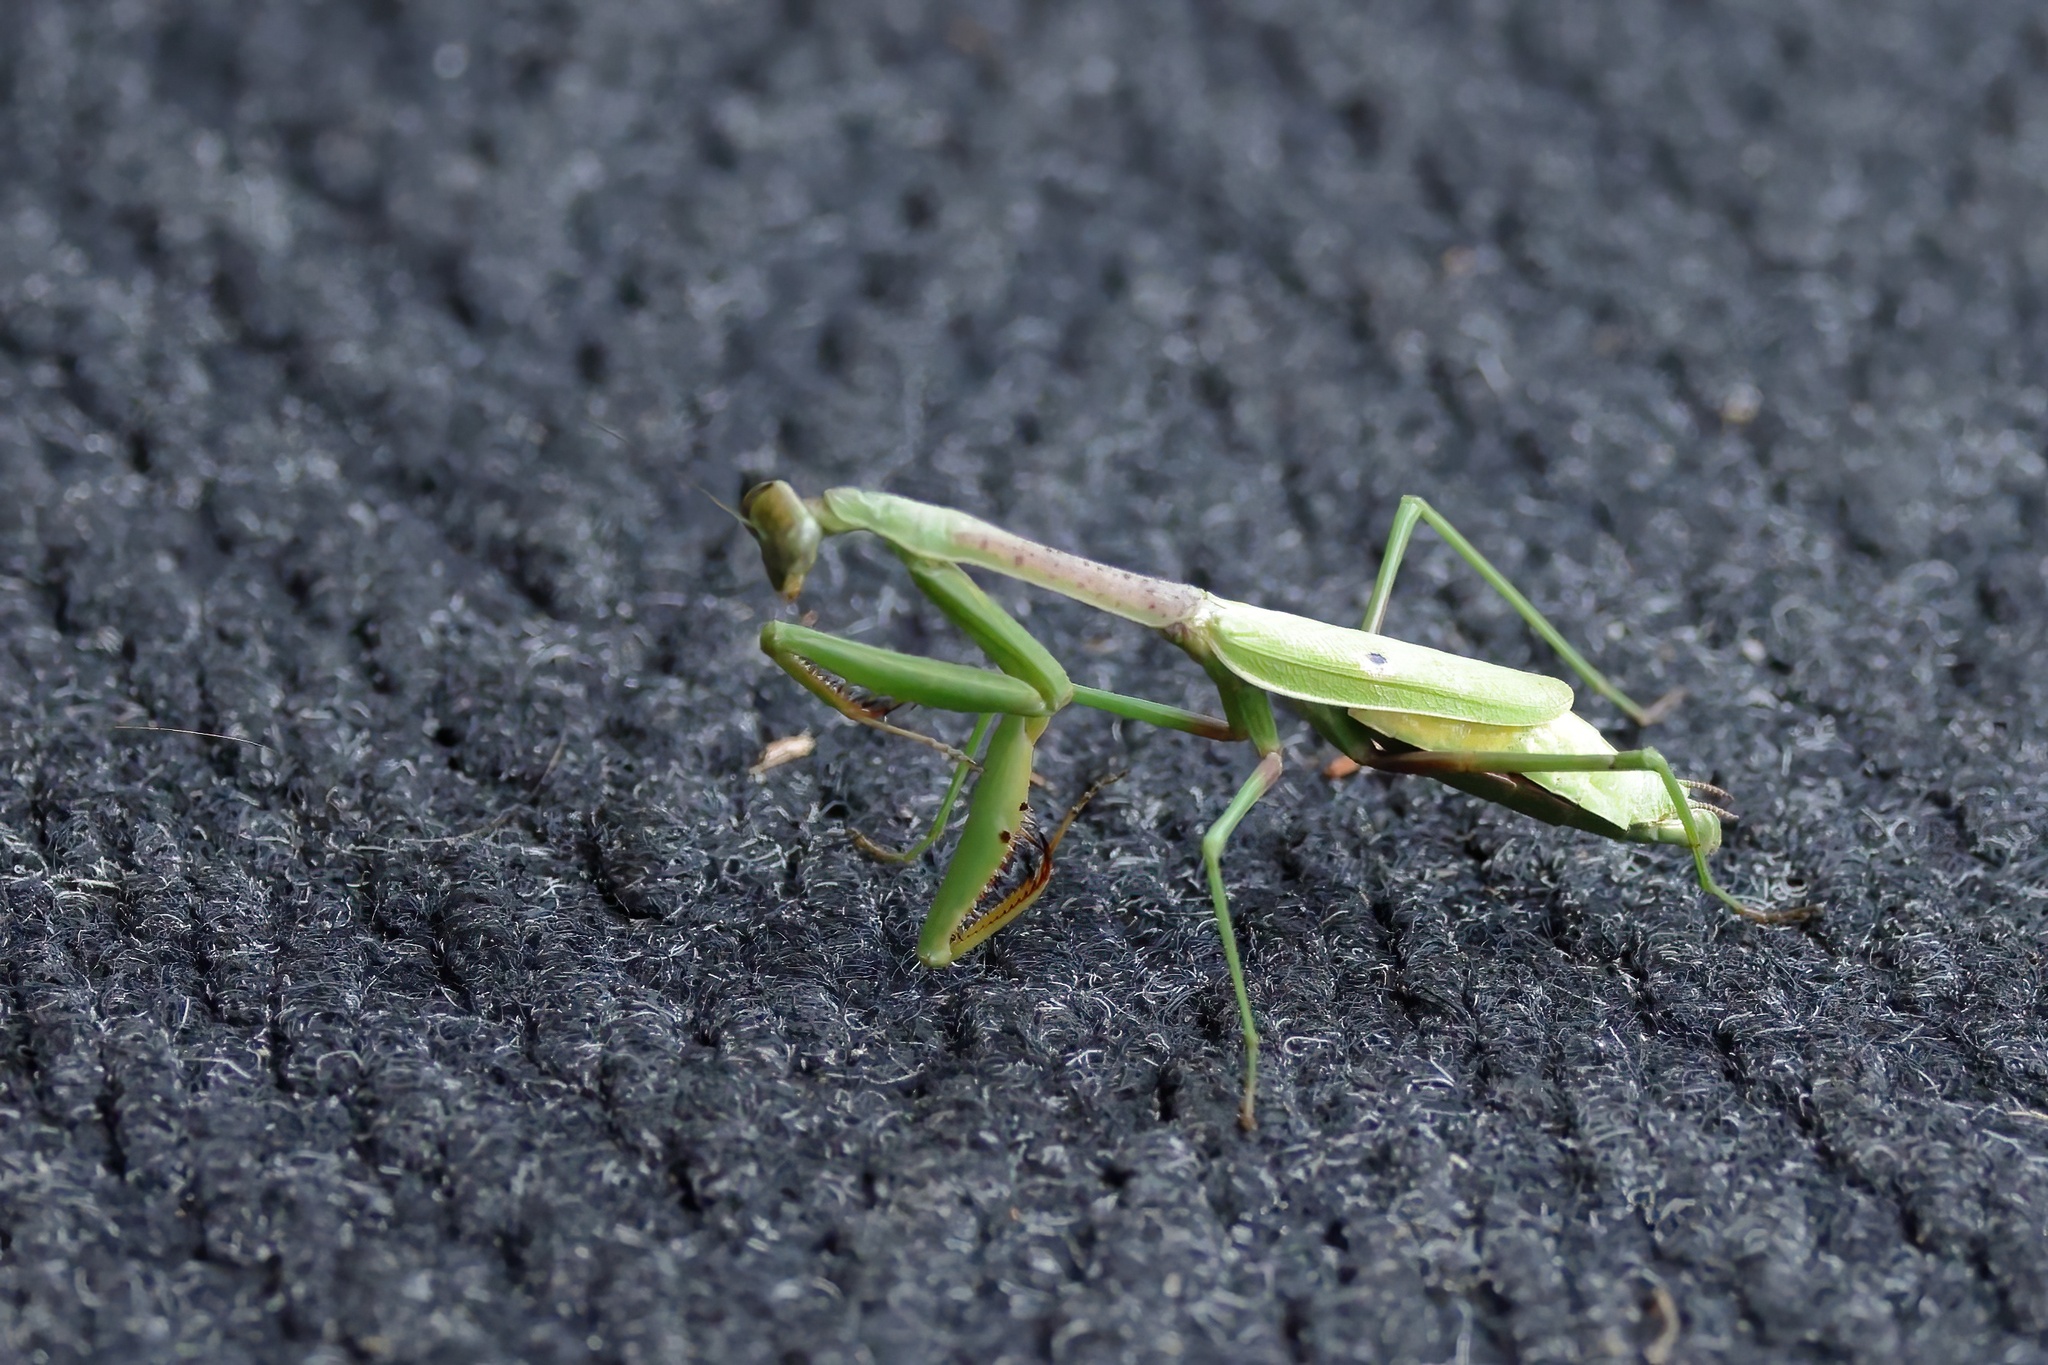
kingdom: Animalia
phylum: Arthropoda
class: Insecta
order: Mantodea
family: Mantidae
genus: Stagmomantis
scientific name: Stagmomantis carolina
